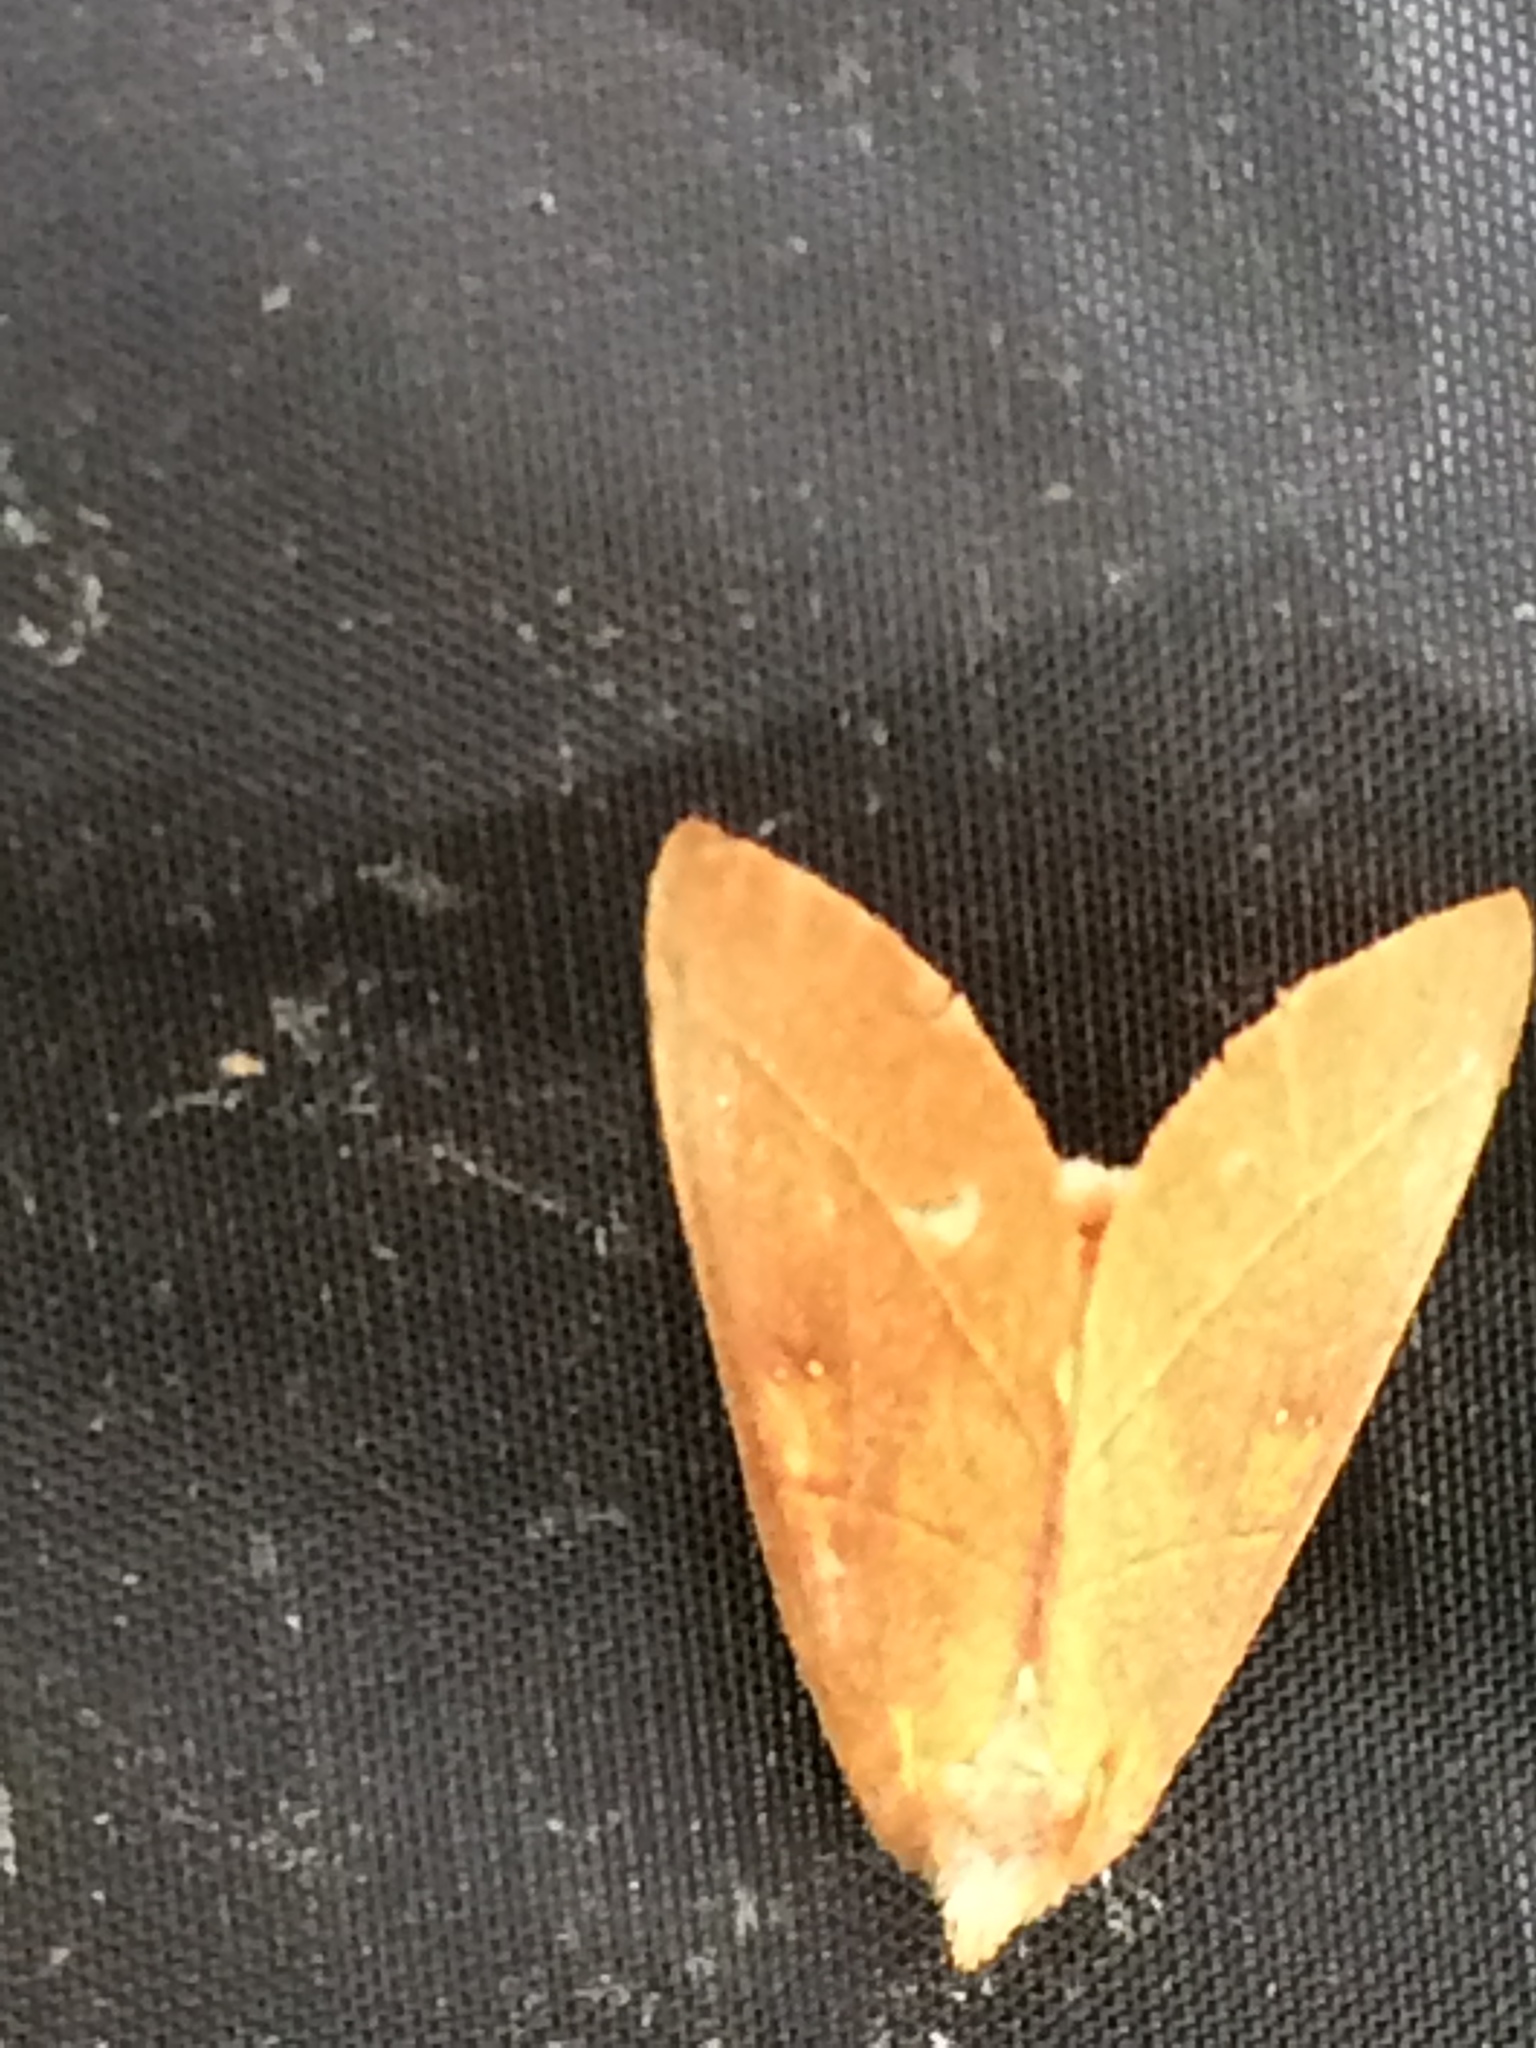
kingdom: Animalia
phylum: Arthropoda
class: Insecta
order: Lepidoptera
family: Notodontidae
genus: Nadata
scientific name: Nadata gibbosa
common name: White-dotted prominent
